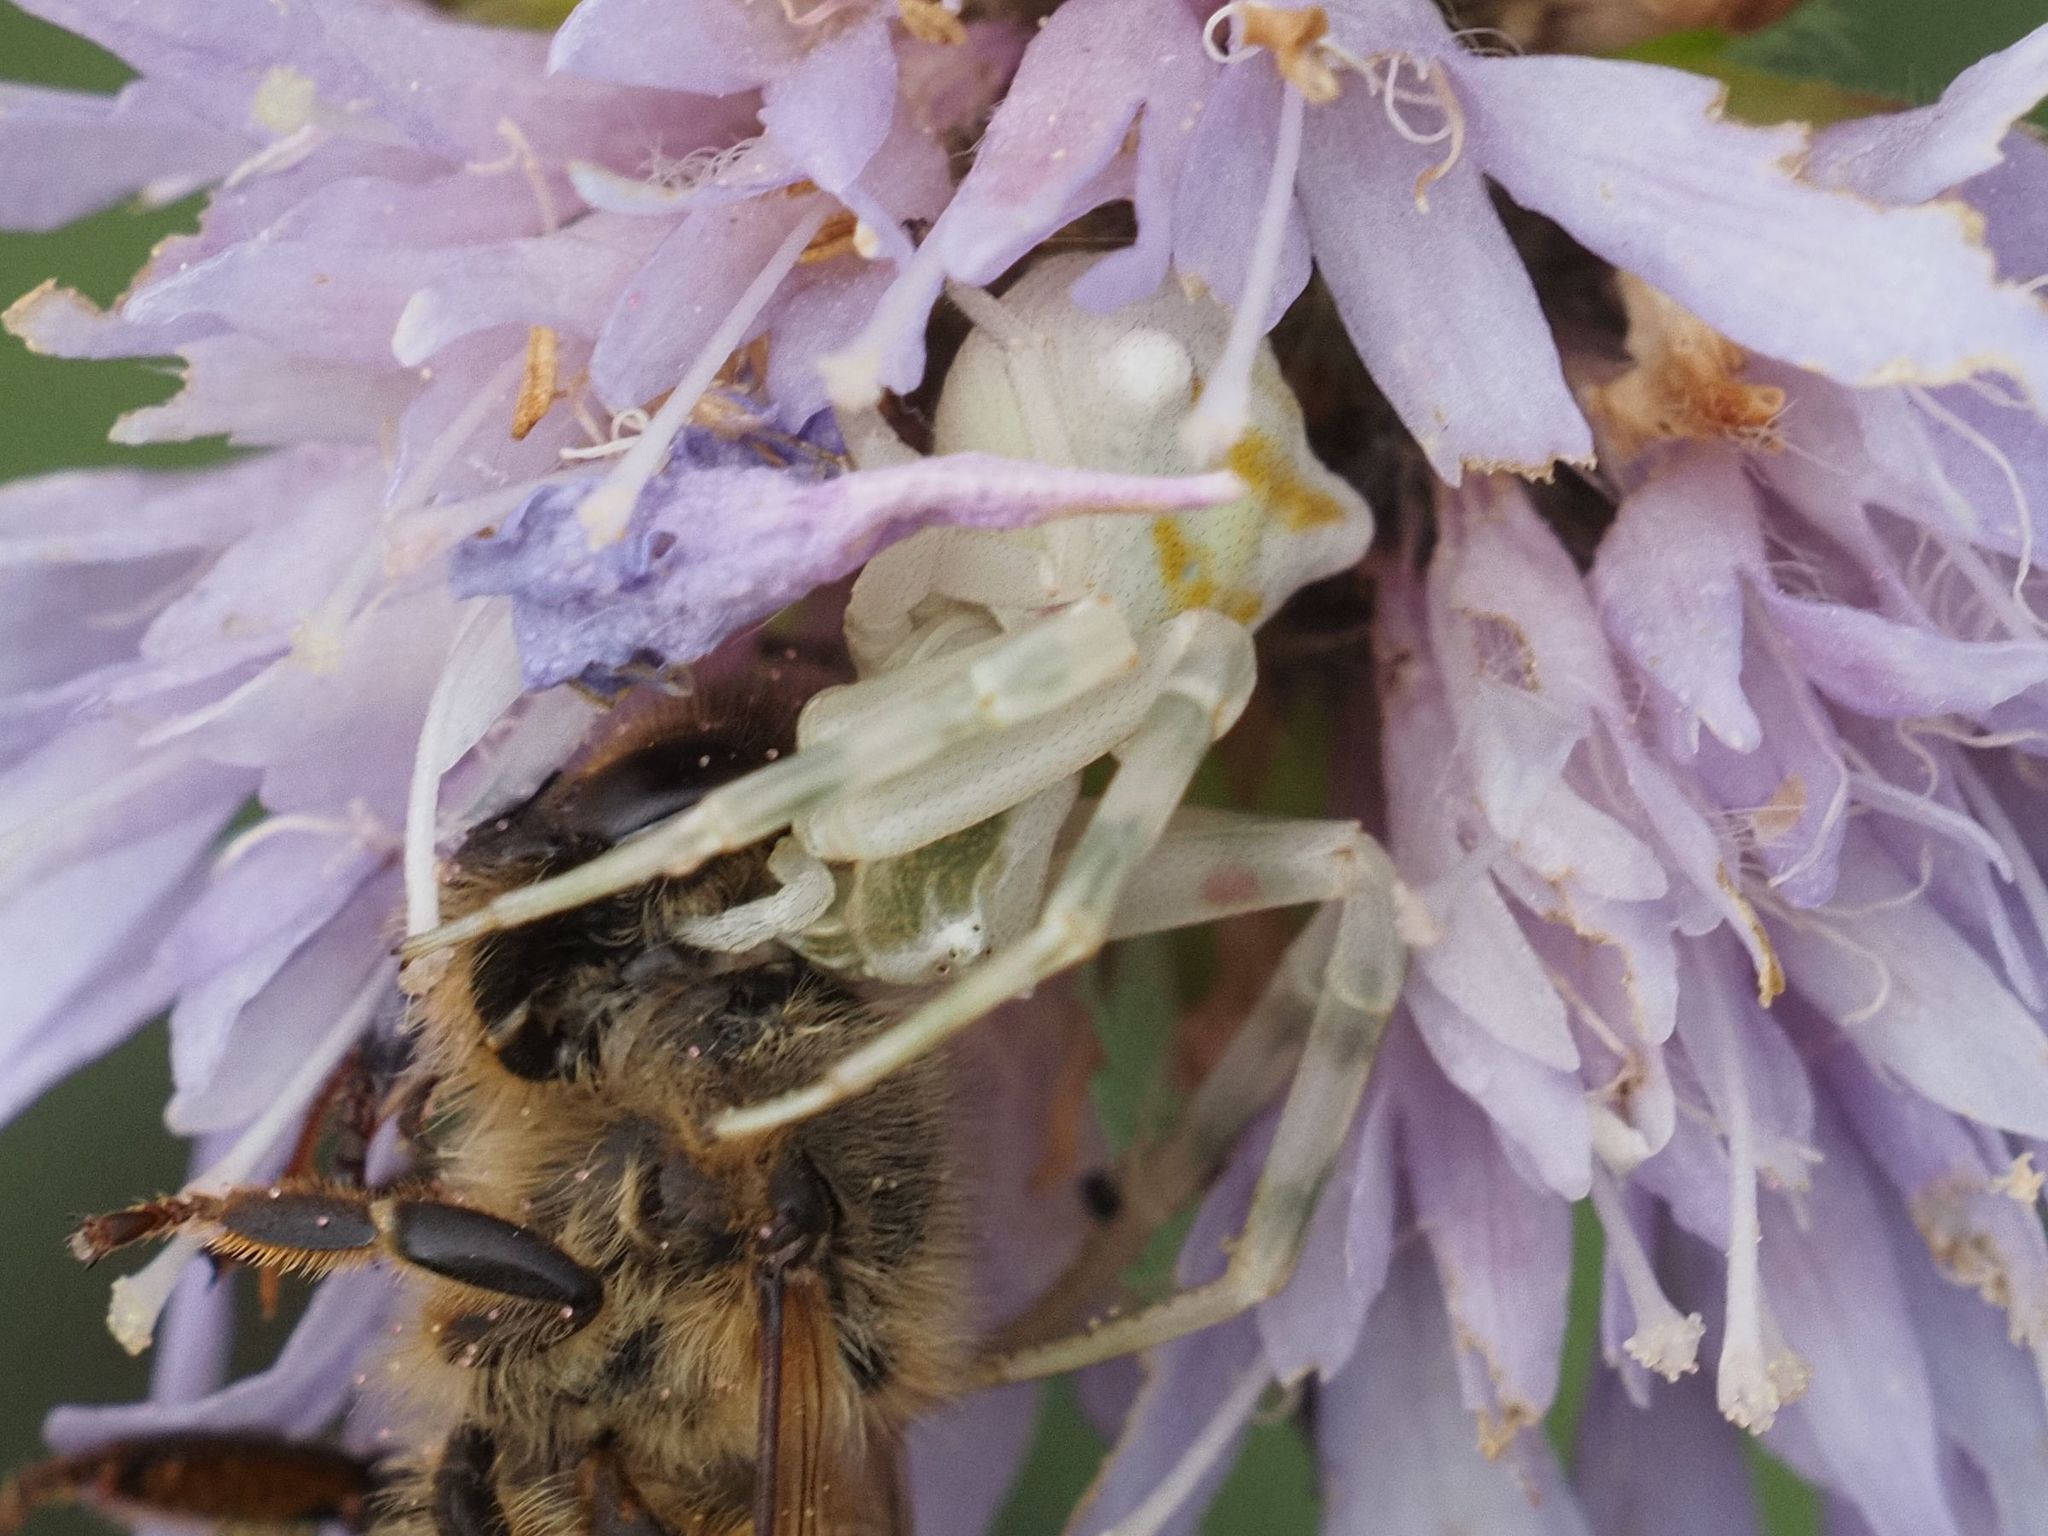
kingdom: Animalia
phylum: Arthropoda
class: Arachnida
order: Araneae
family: Thomisidae
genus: Thomisus
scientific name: Thomisus onustus
